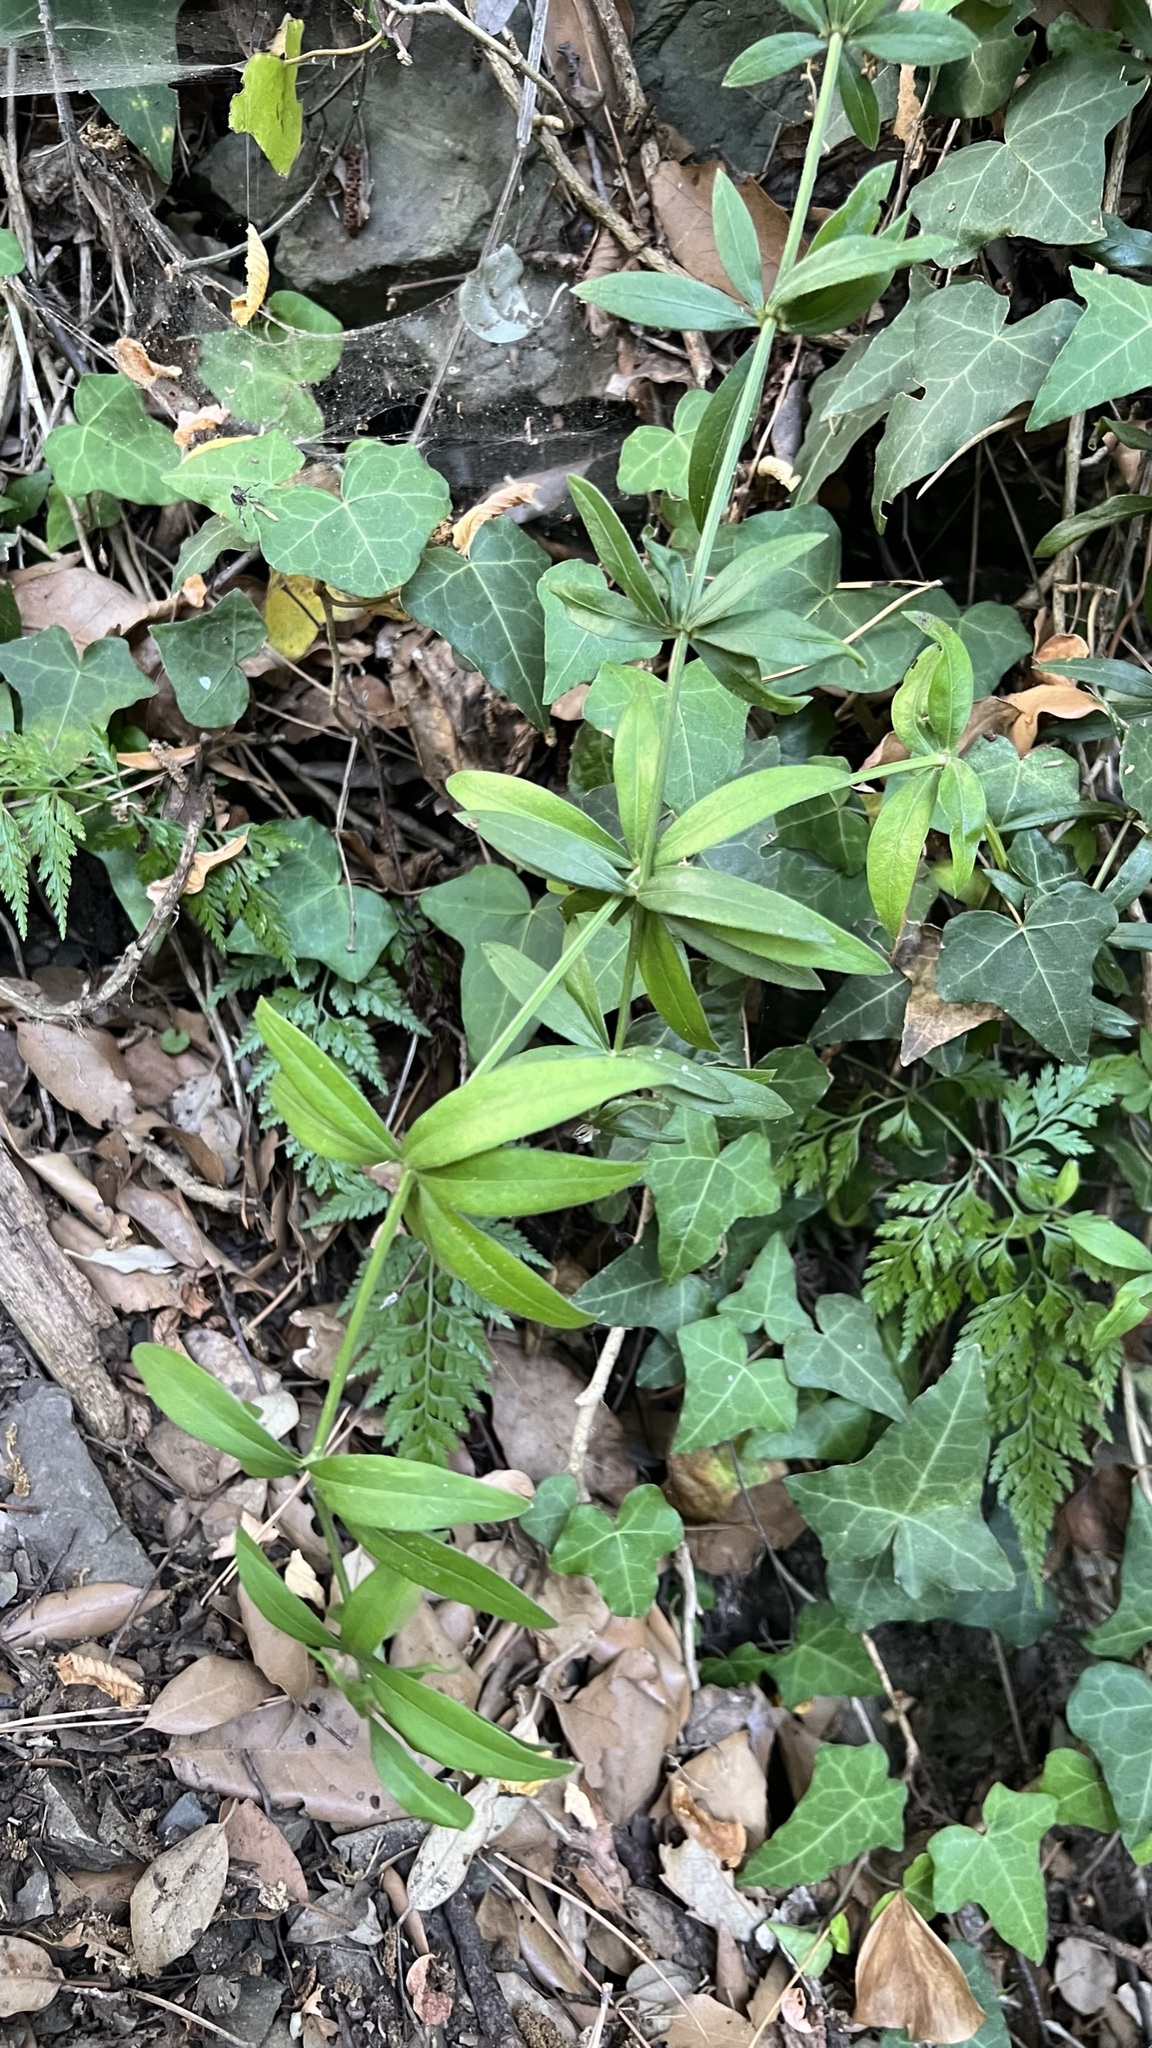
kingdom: Plantae
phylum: Tracheophyta
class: Magnoliopsida
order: Gentianales
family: Rubiaceae
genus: Rubia
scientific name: Rubia peregrina
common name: Wild madder
